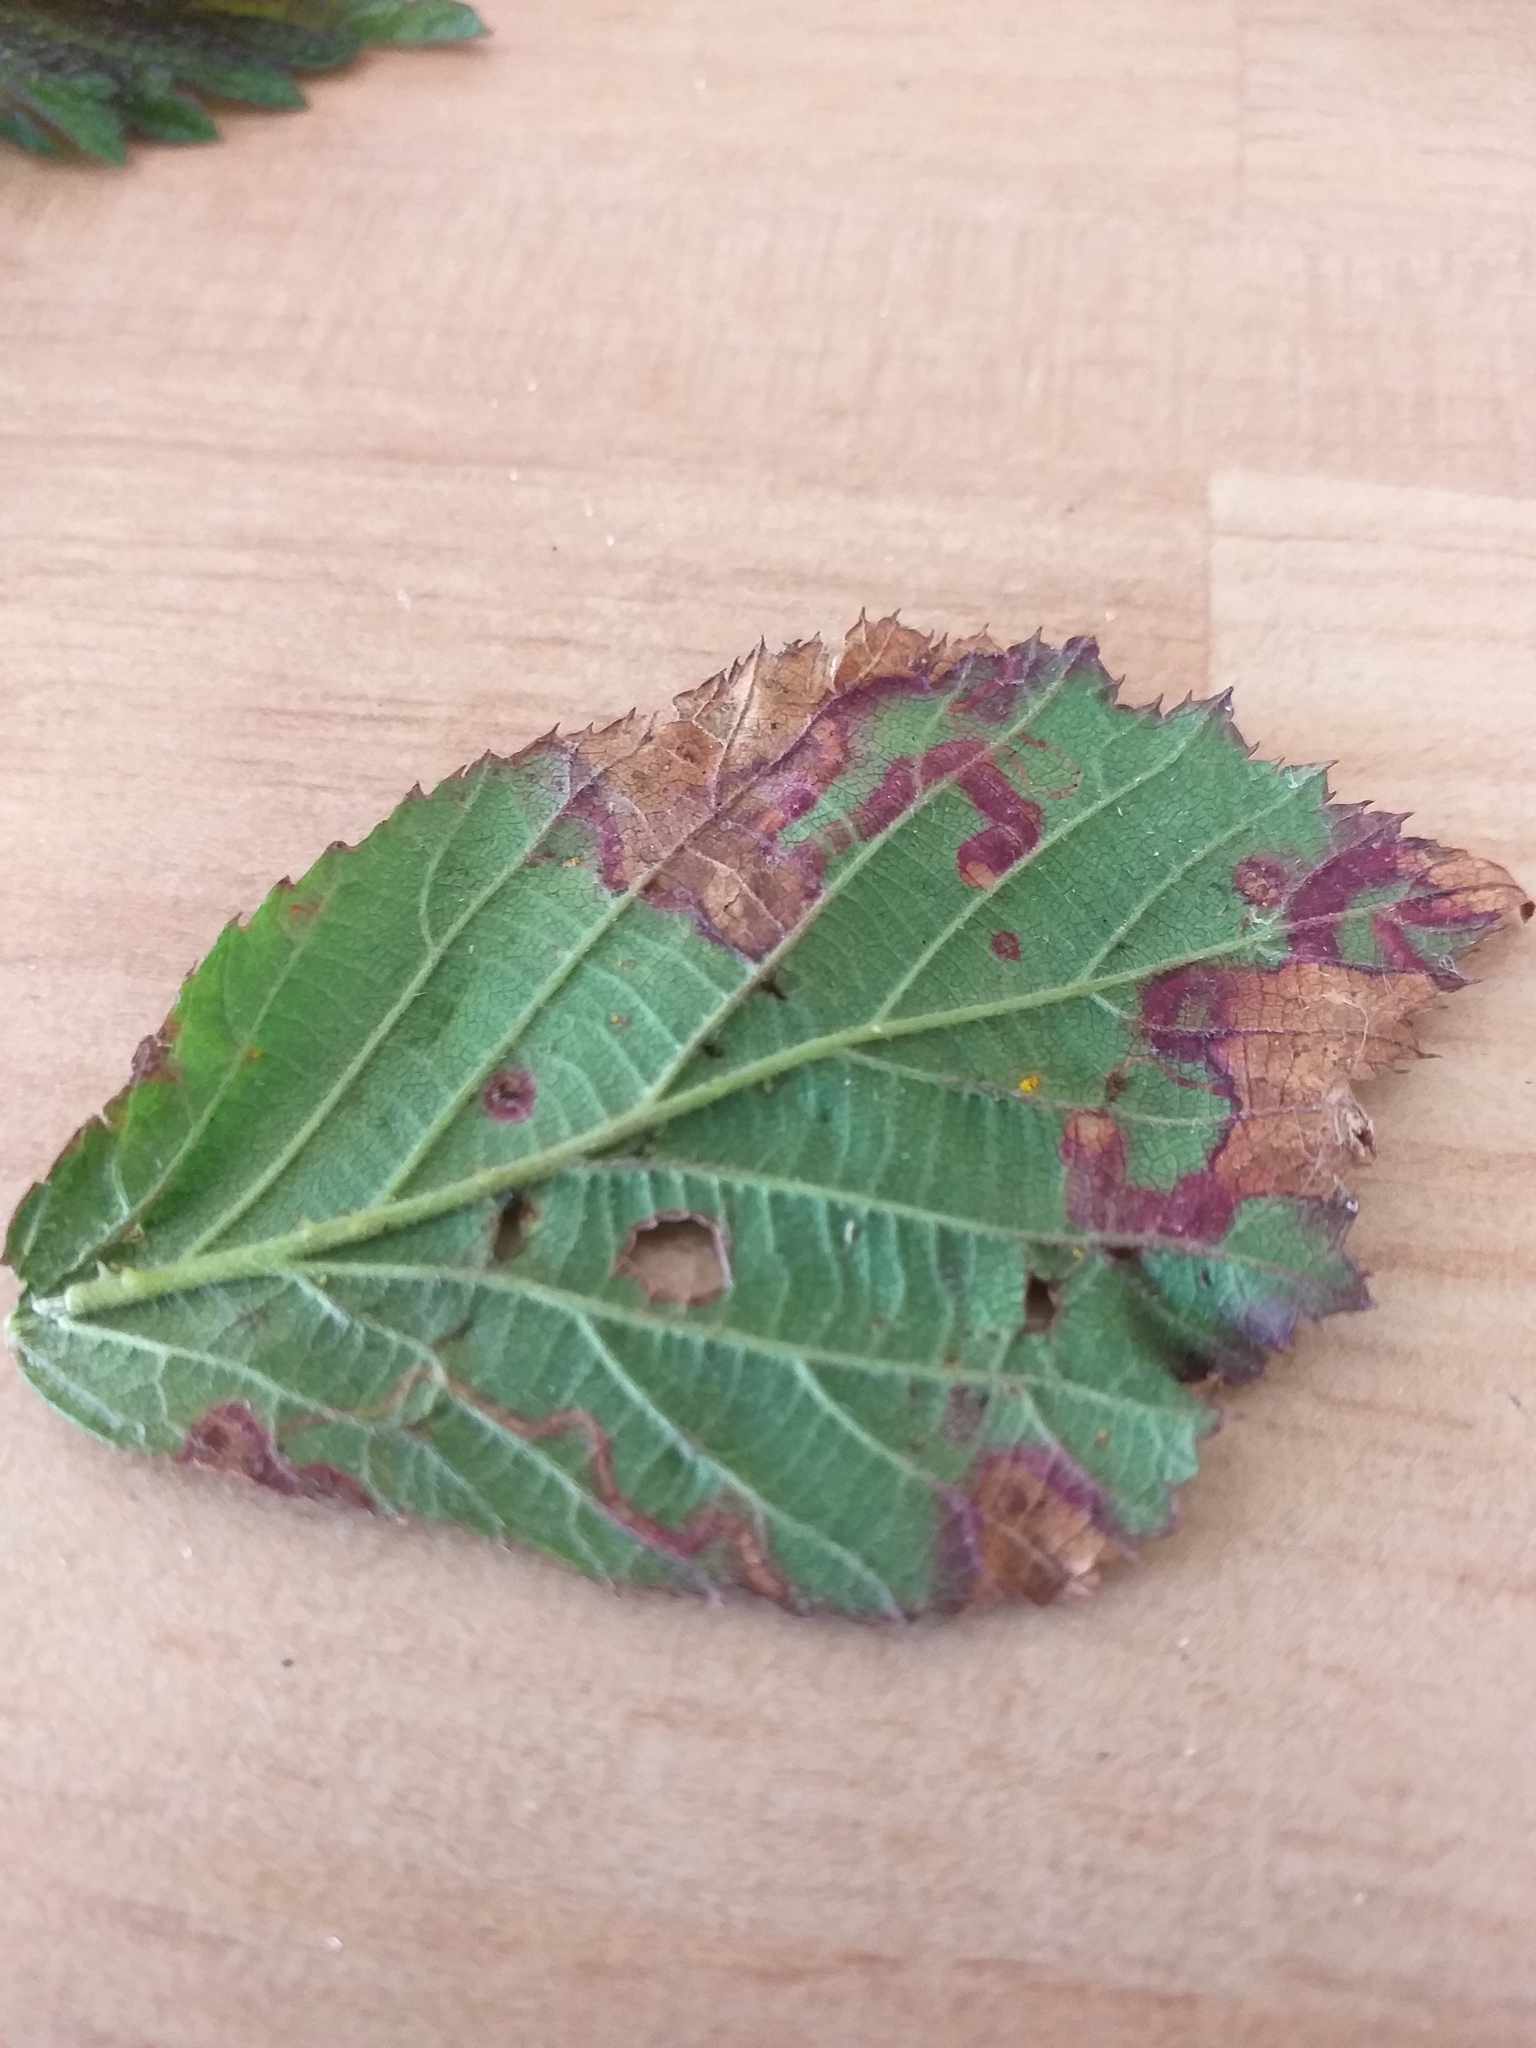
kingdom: Animalia
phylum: Arthropoda
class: Insecta
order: Lepidoptera
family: Nepticulidae
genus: Stigmella
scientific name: Stigmella aurella
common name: Golden pigmy
